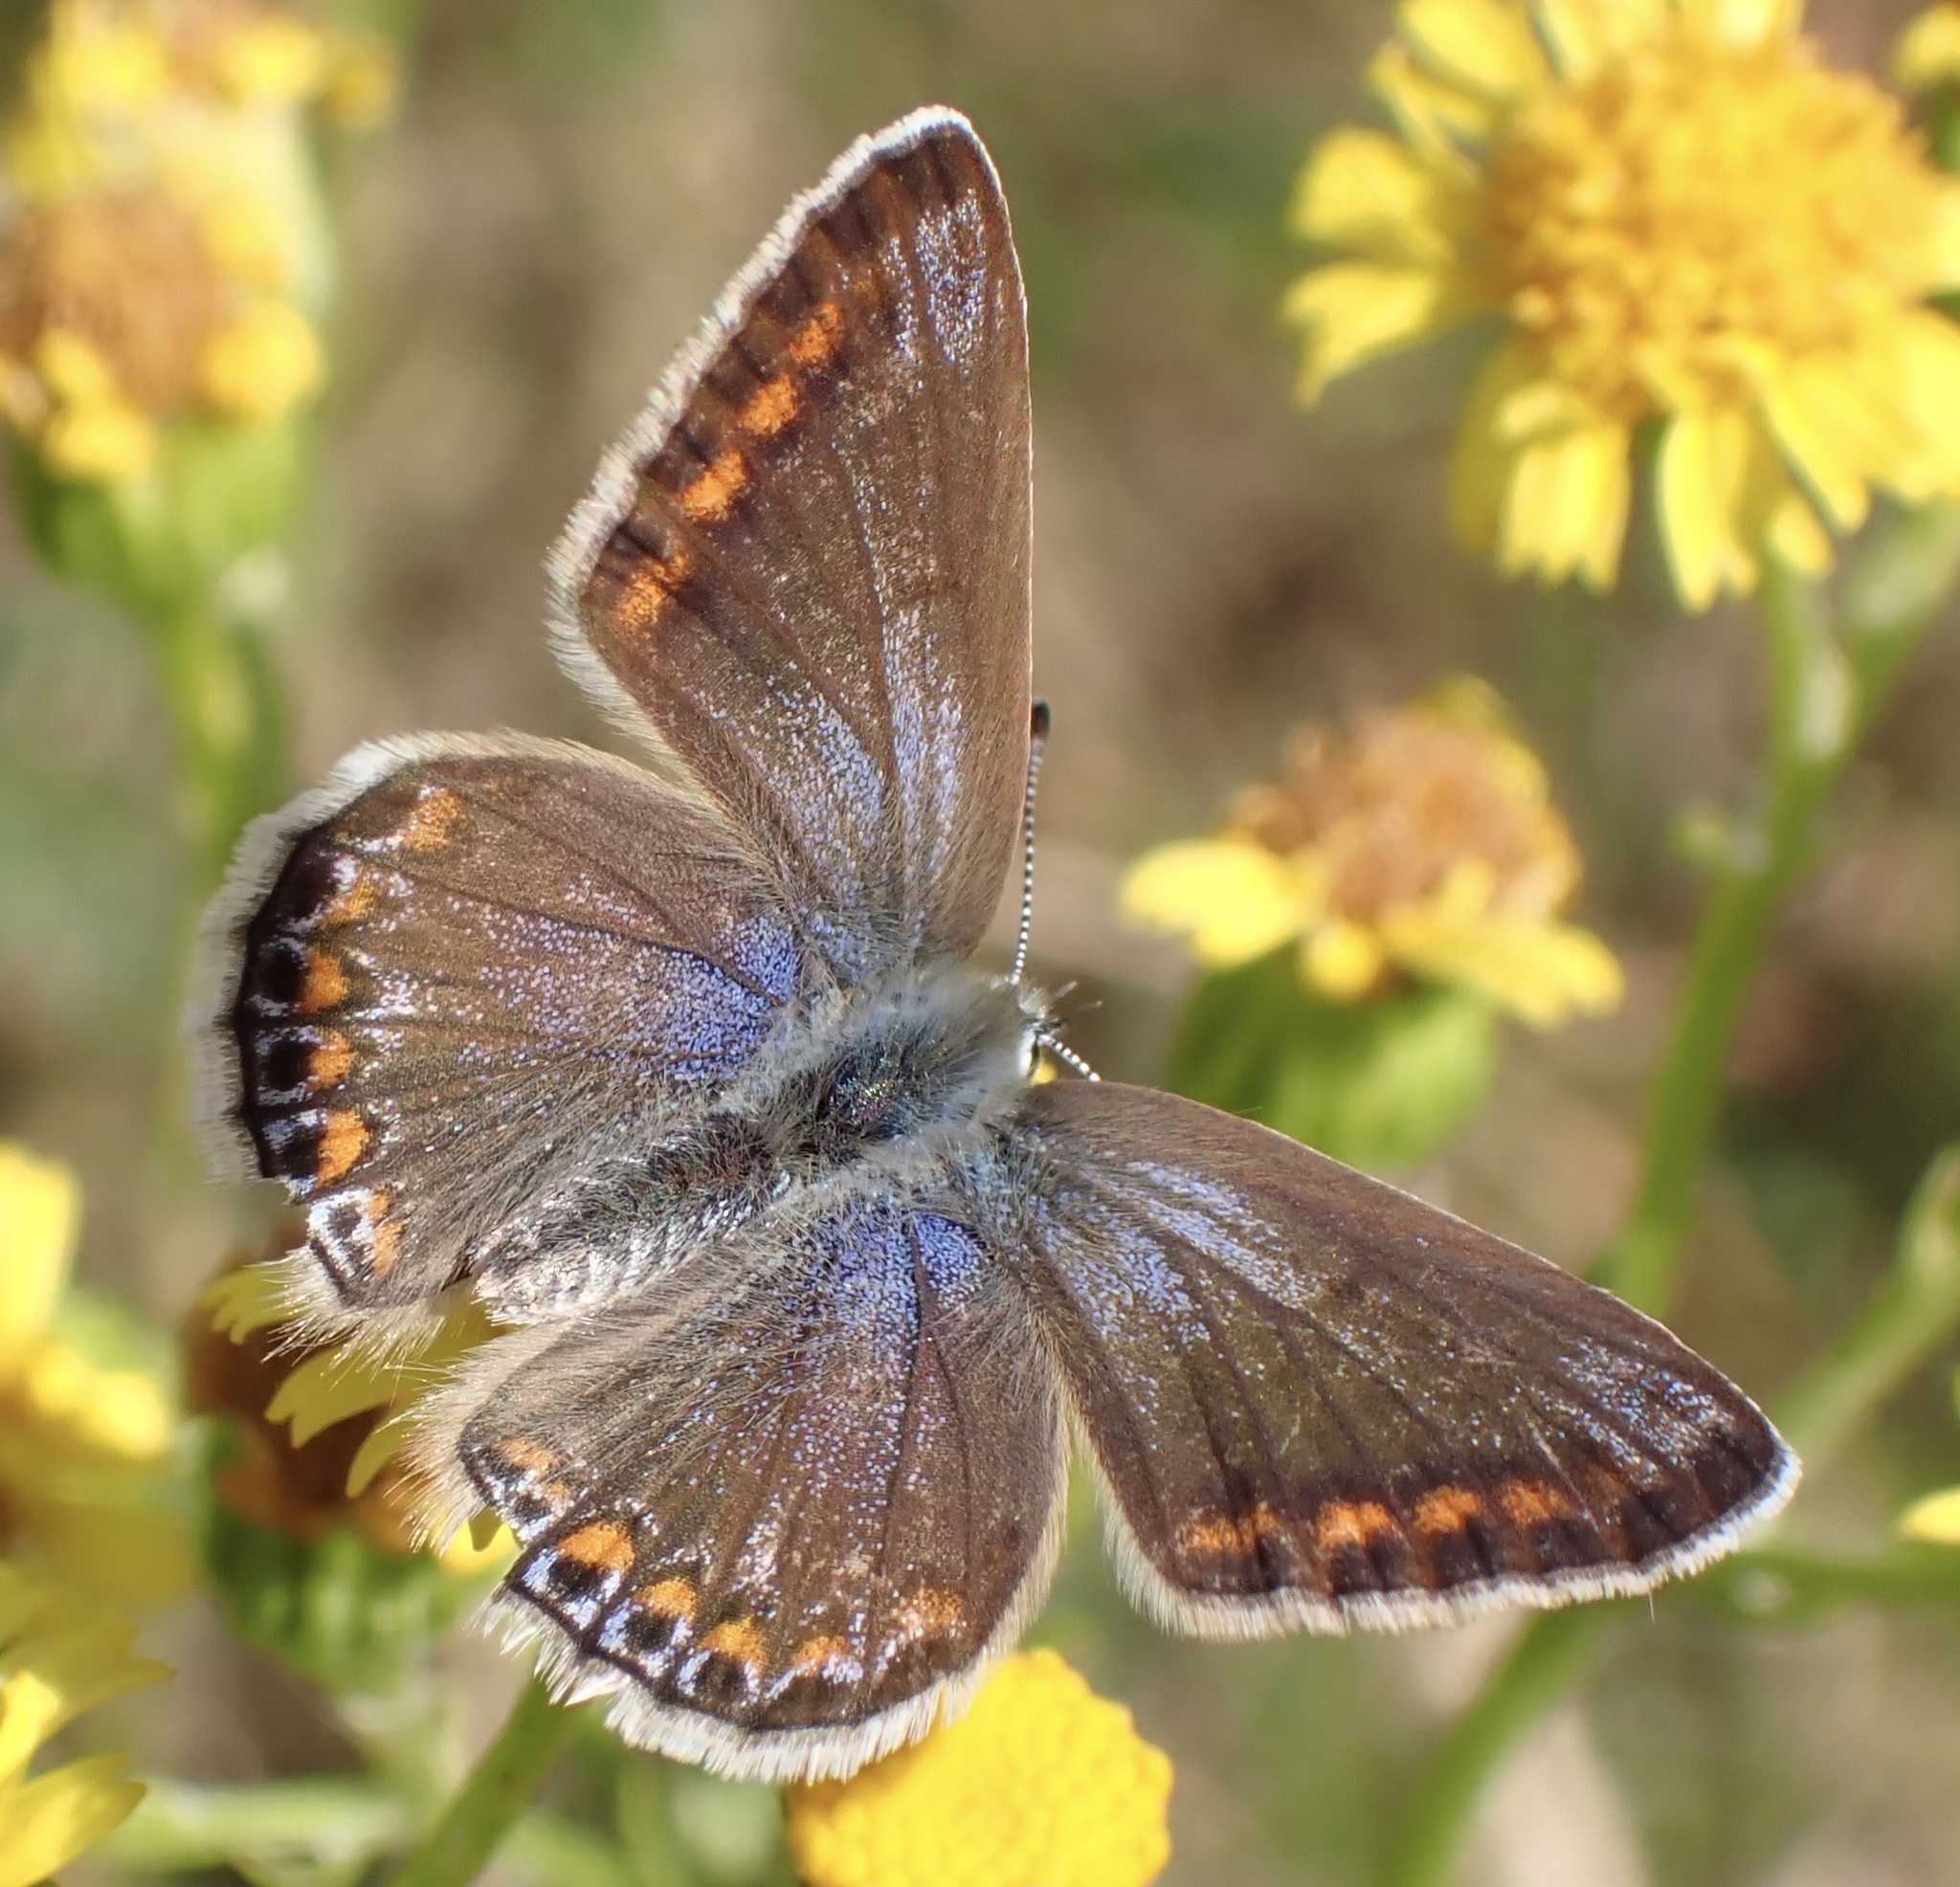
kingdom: Animalia
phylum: Arthropoda
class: Insecta
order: Lepidoptera
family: Lycaenidae
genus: Polyommatus
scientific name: Polyommatus icarus
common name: Common blue
